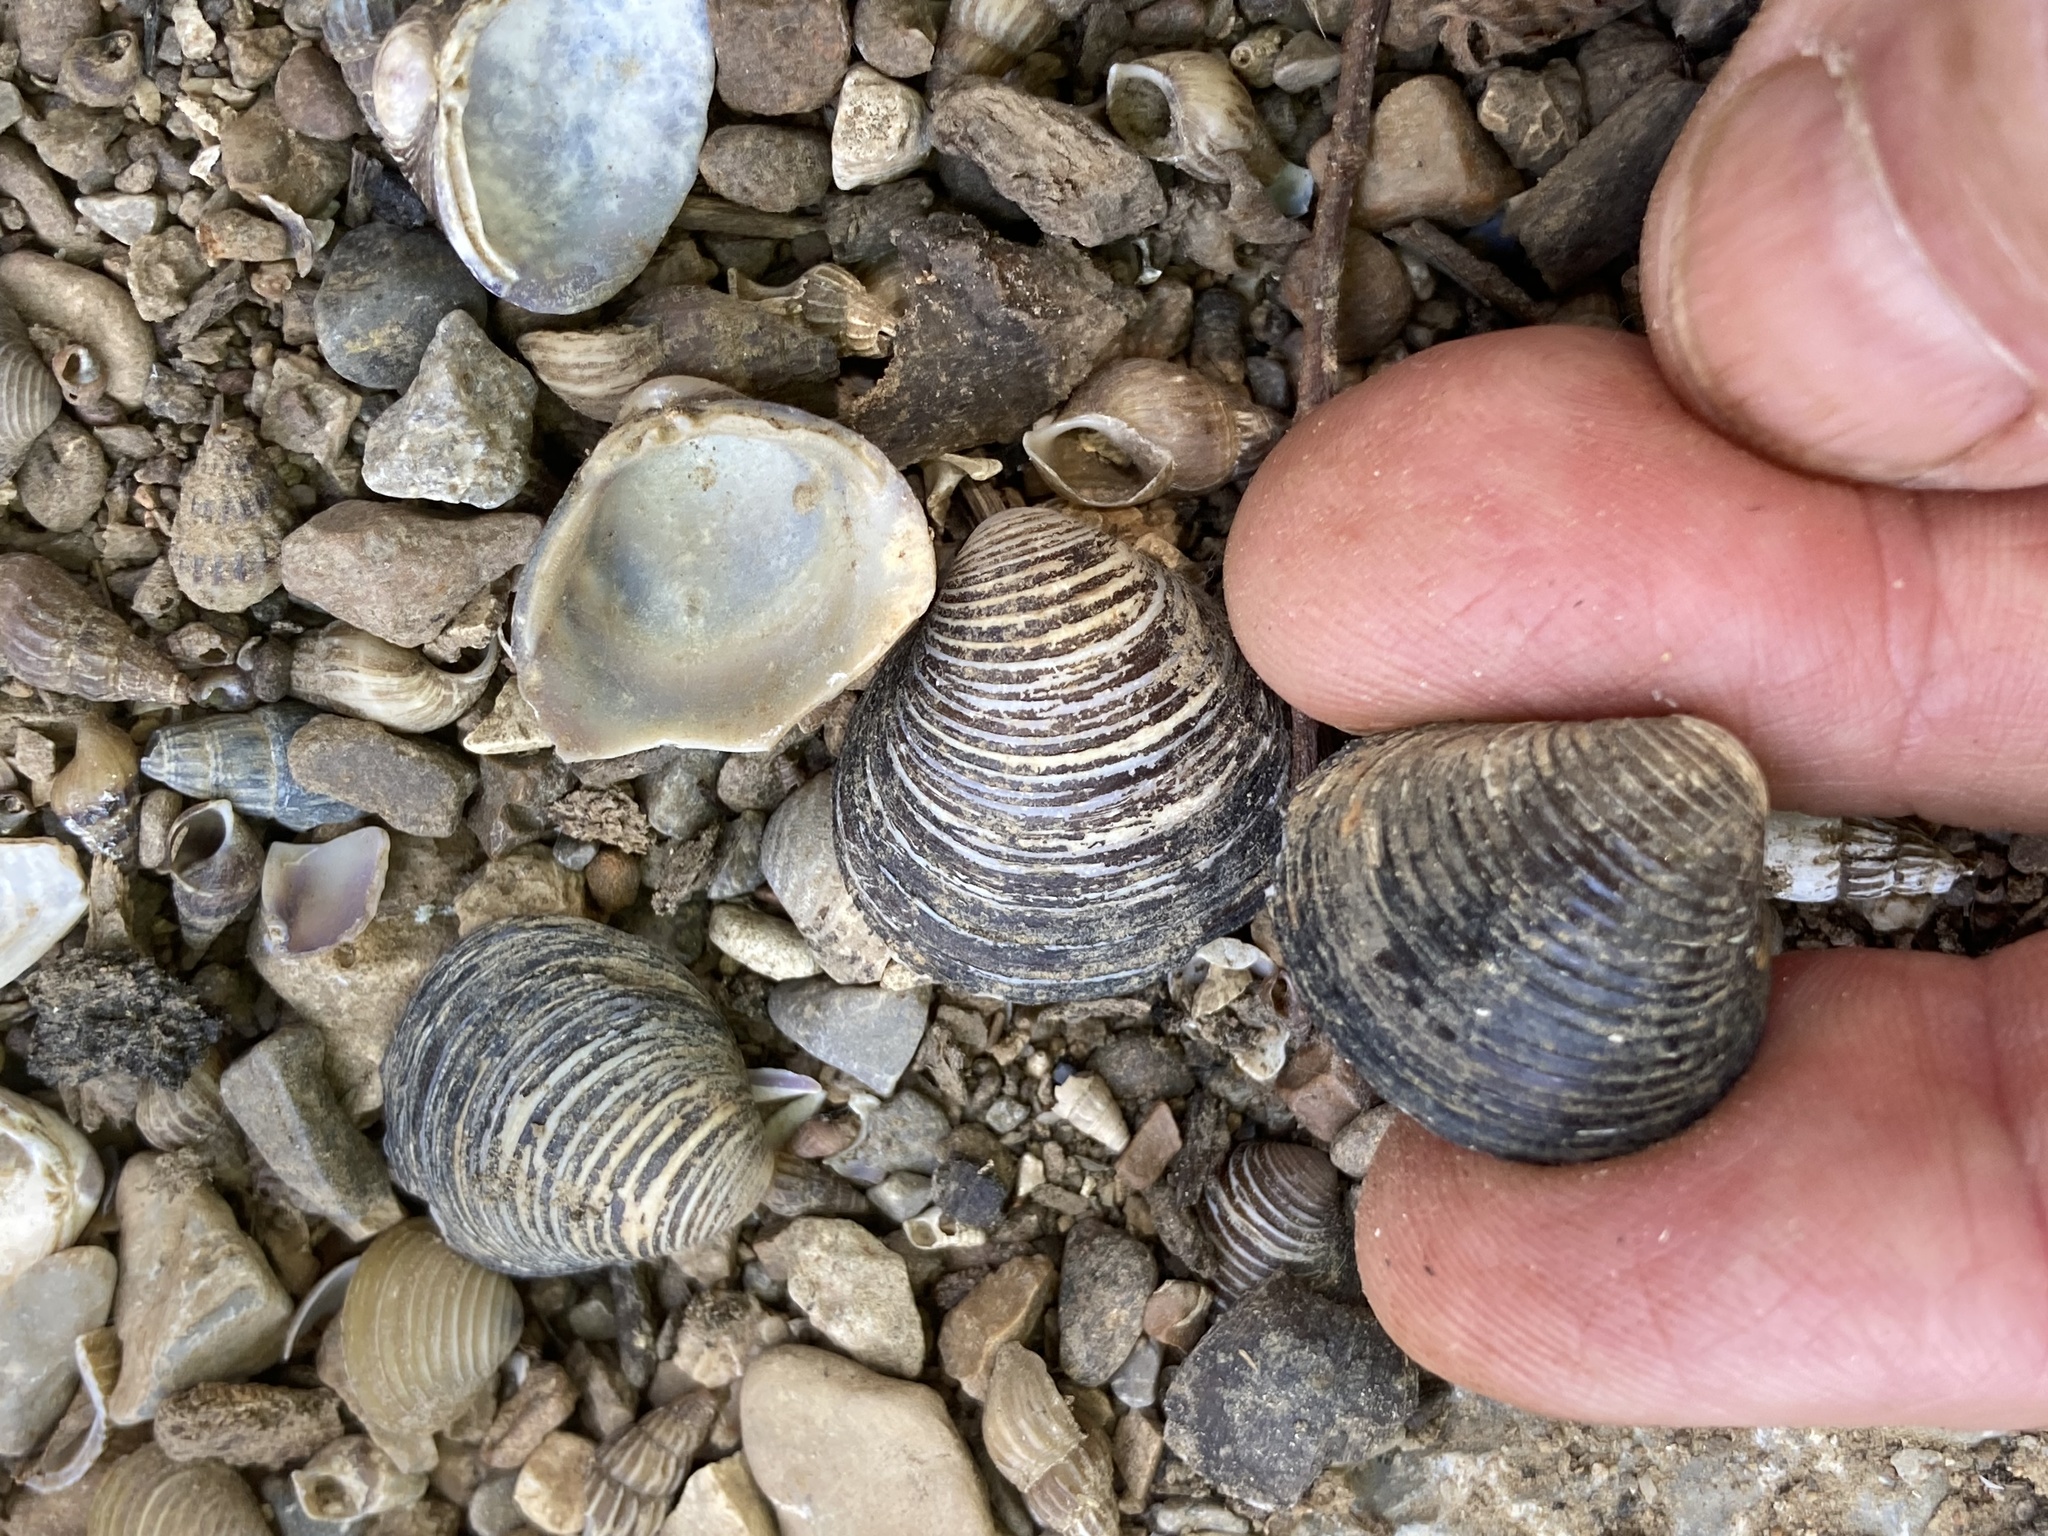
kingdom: Animalia
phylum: Mollusca
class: Bivalvia
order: Venerida
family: Cyrenidae
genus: Corbicula
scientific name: Corbicula fluminea
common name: Asian clam
